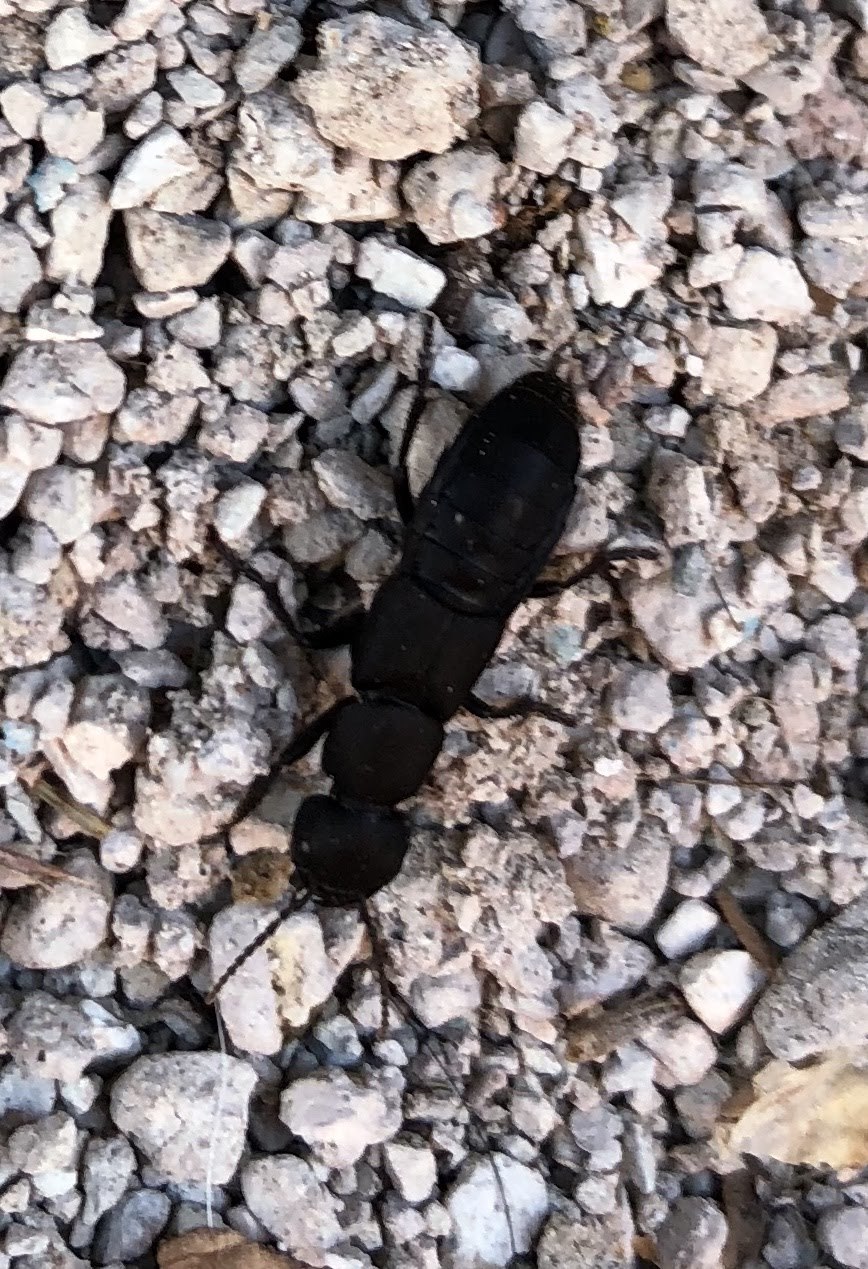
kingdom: Animalia
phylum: Arthropoda
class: Insecta
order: Coleoptera
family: Staphylinidae
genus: Ocypus
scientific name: Ocypus olens
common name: Devil's coach-horse
